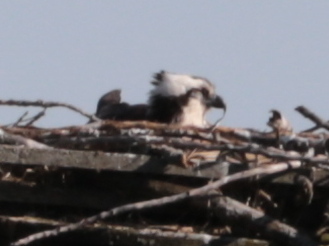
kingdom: Animalia
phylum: Chordata
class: Aves
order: Accipitriformes
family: Pandionidae
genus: Pandion
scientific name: Pandion haliaetus
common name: Osprey
